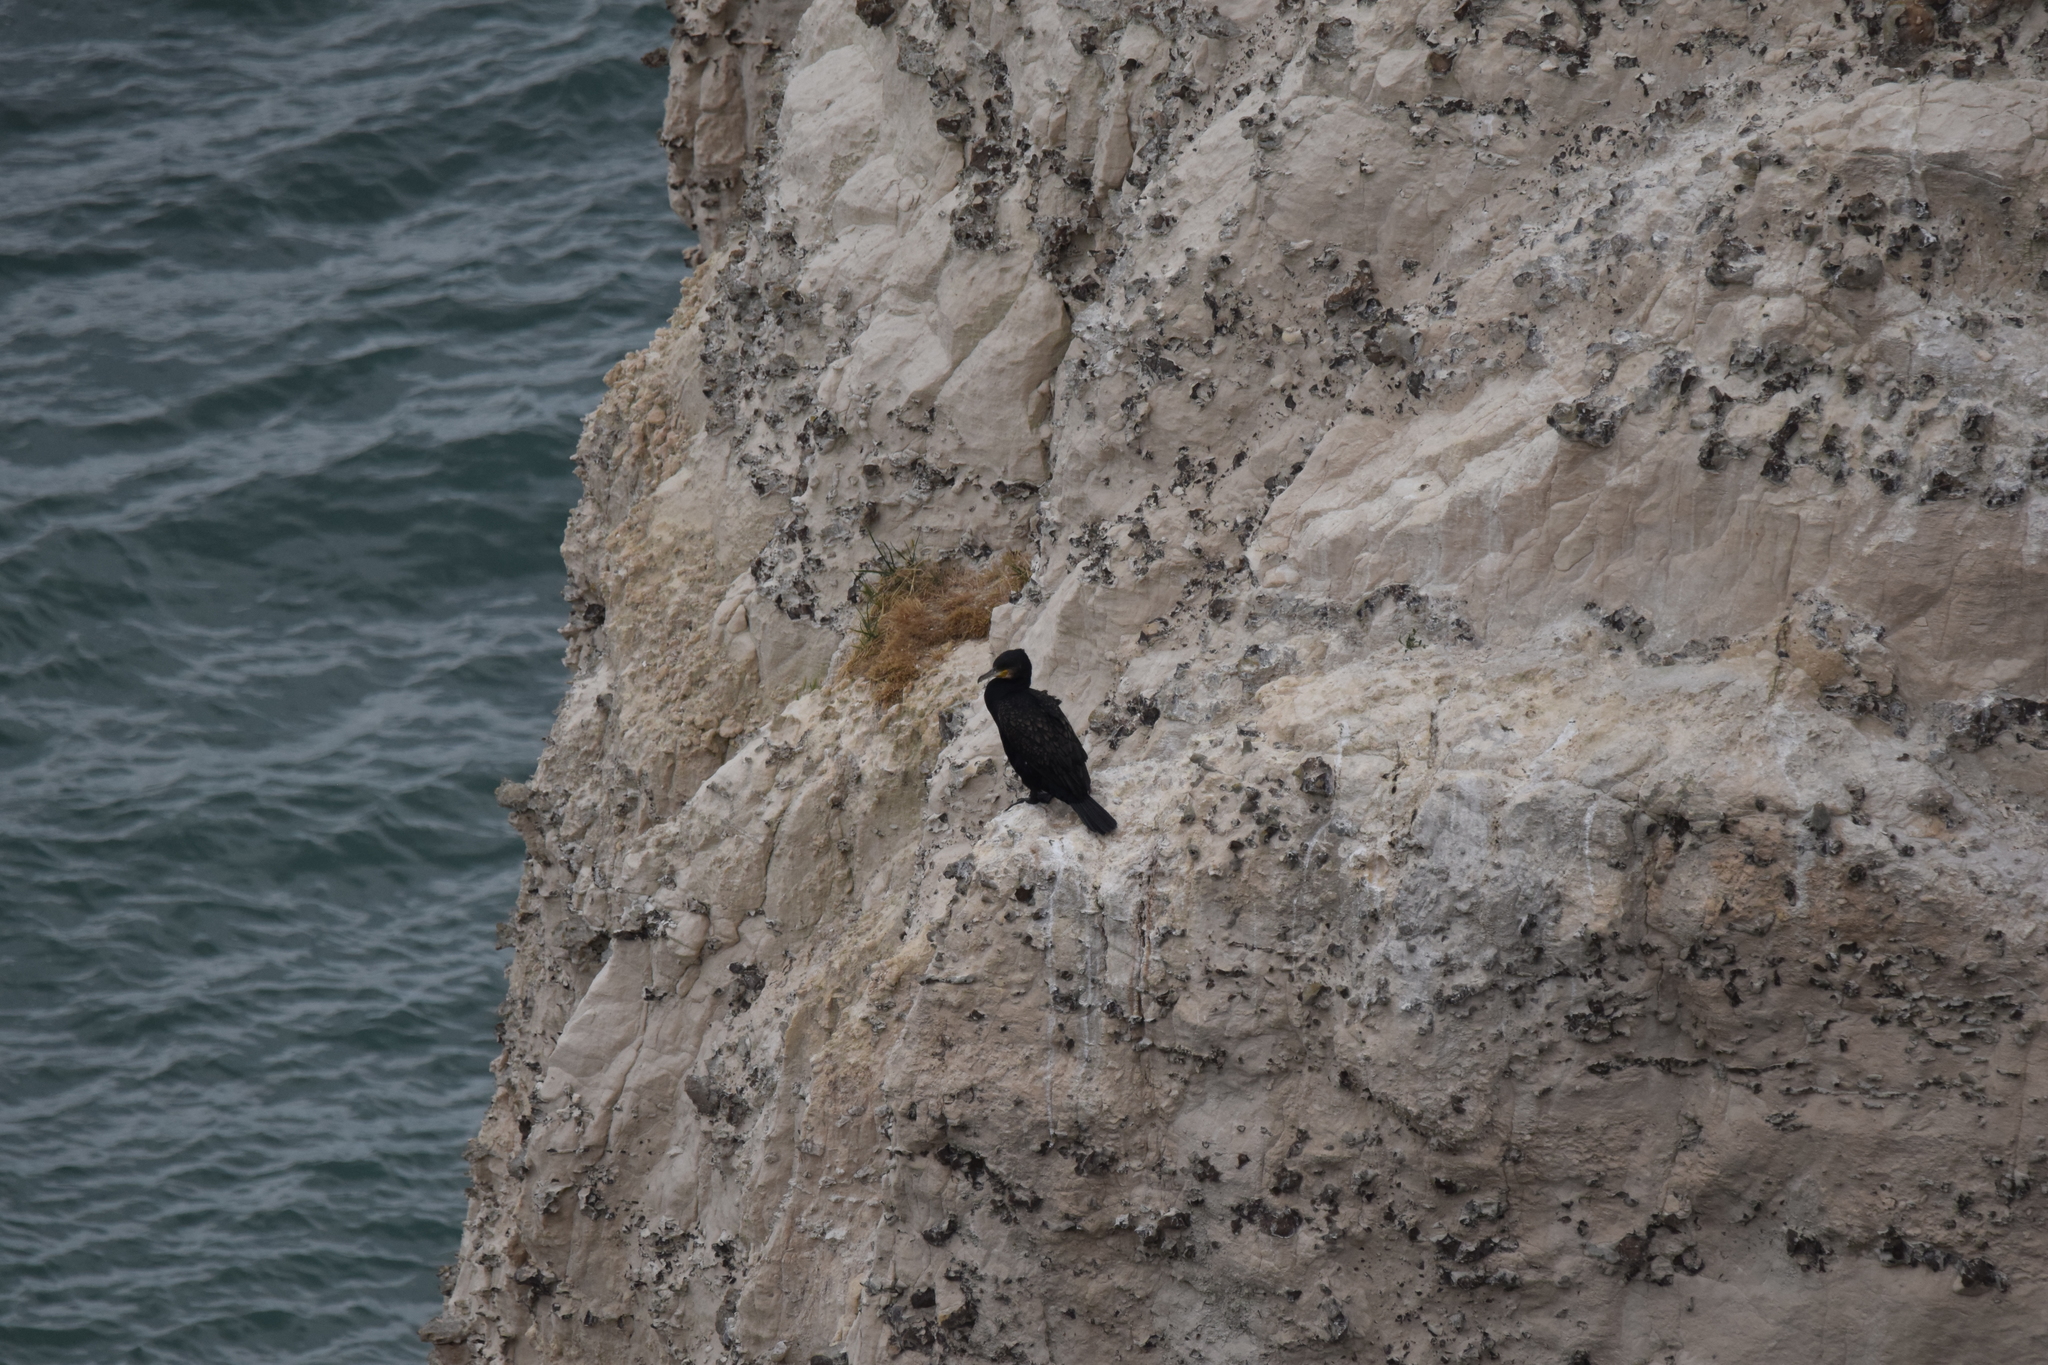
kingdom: Animalia
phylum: Chordata
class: Aves
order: Suliformes
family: Phalacrocoracidae
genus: Phalacrocorax
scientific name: Phalacrocorax carbo
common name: Great cormorant
